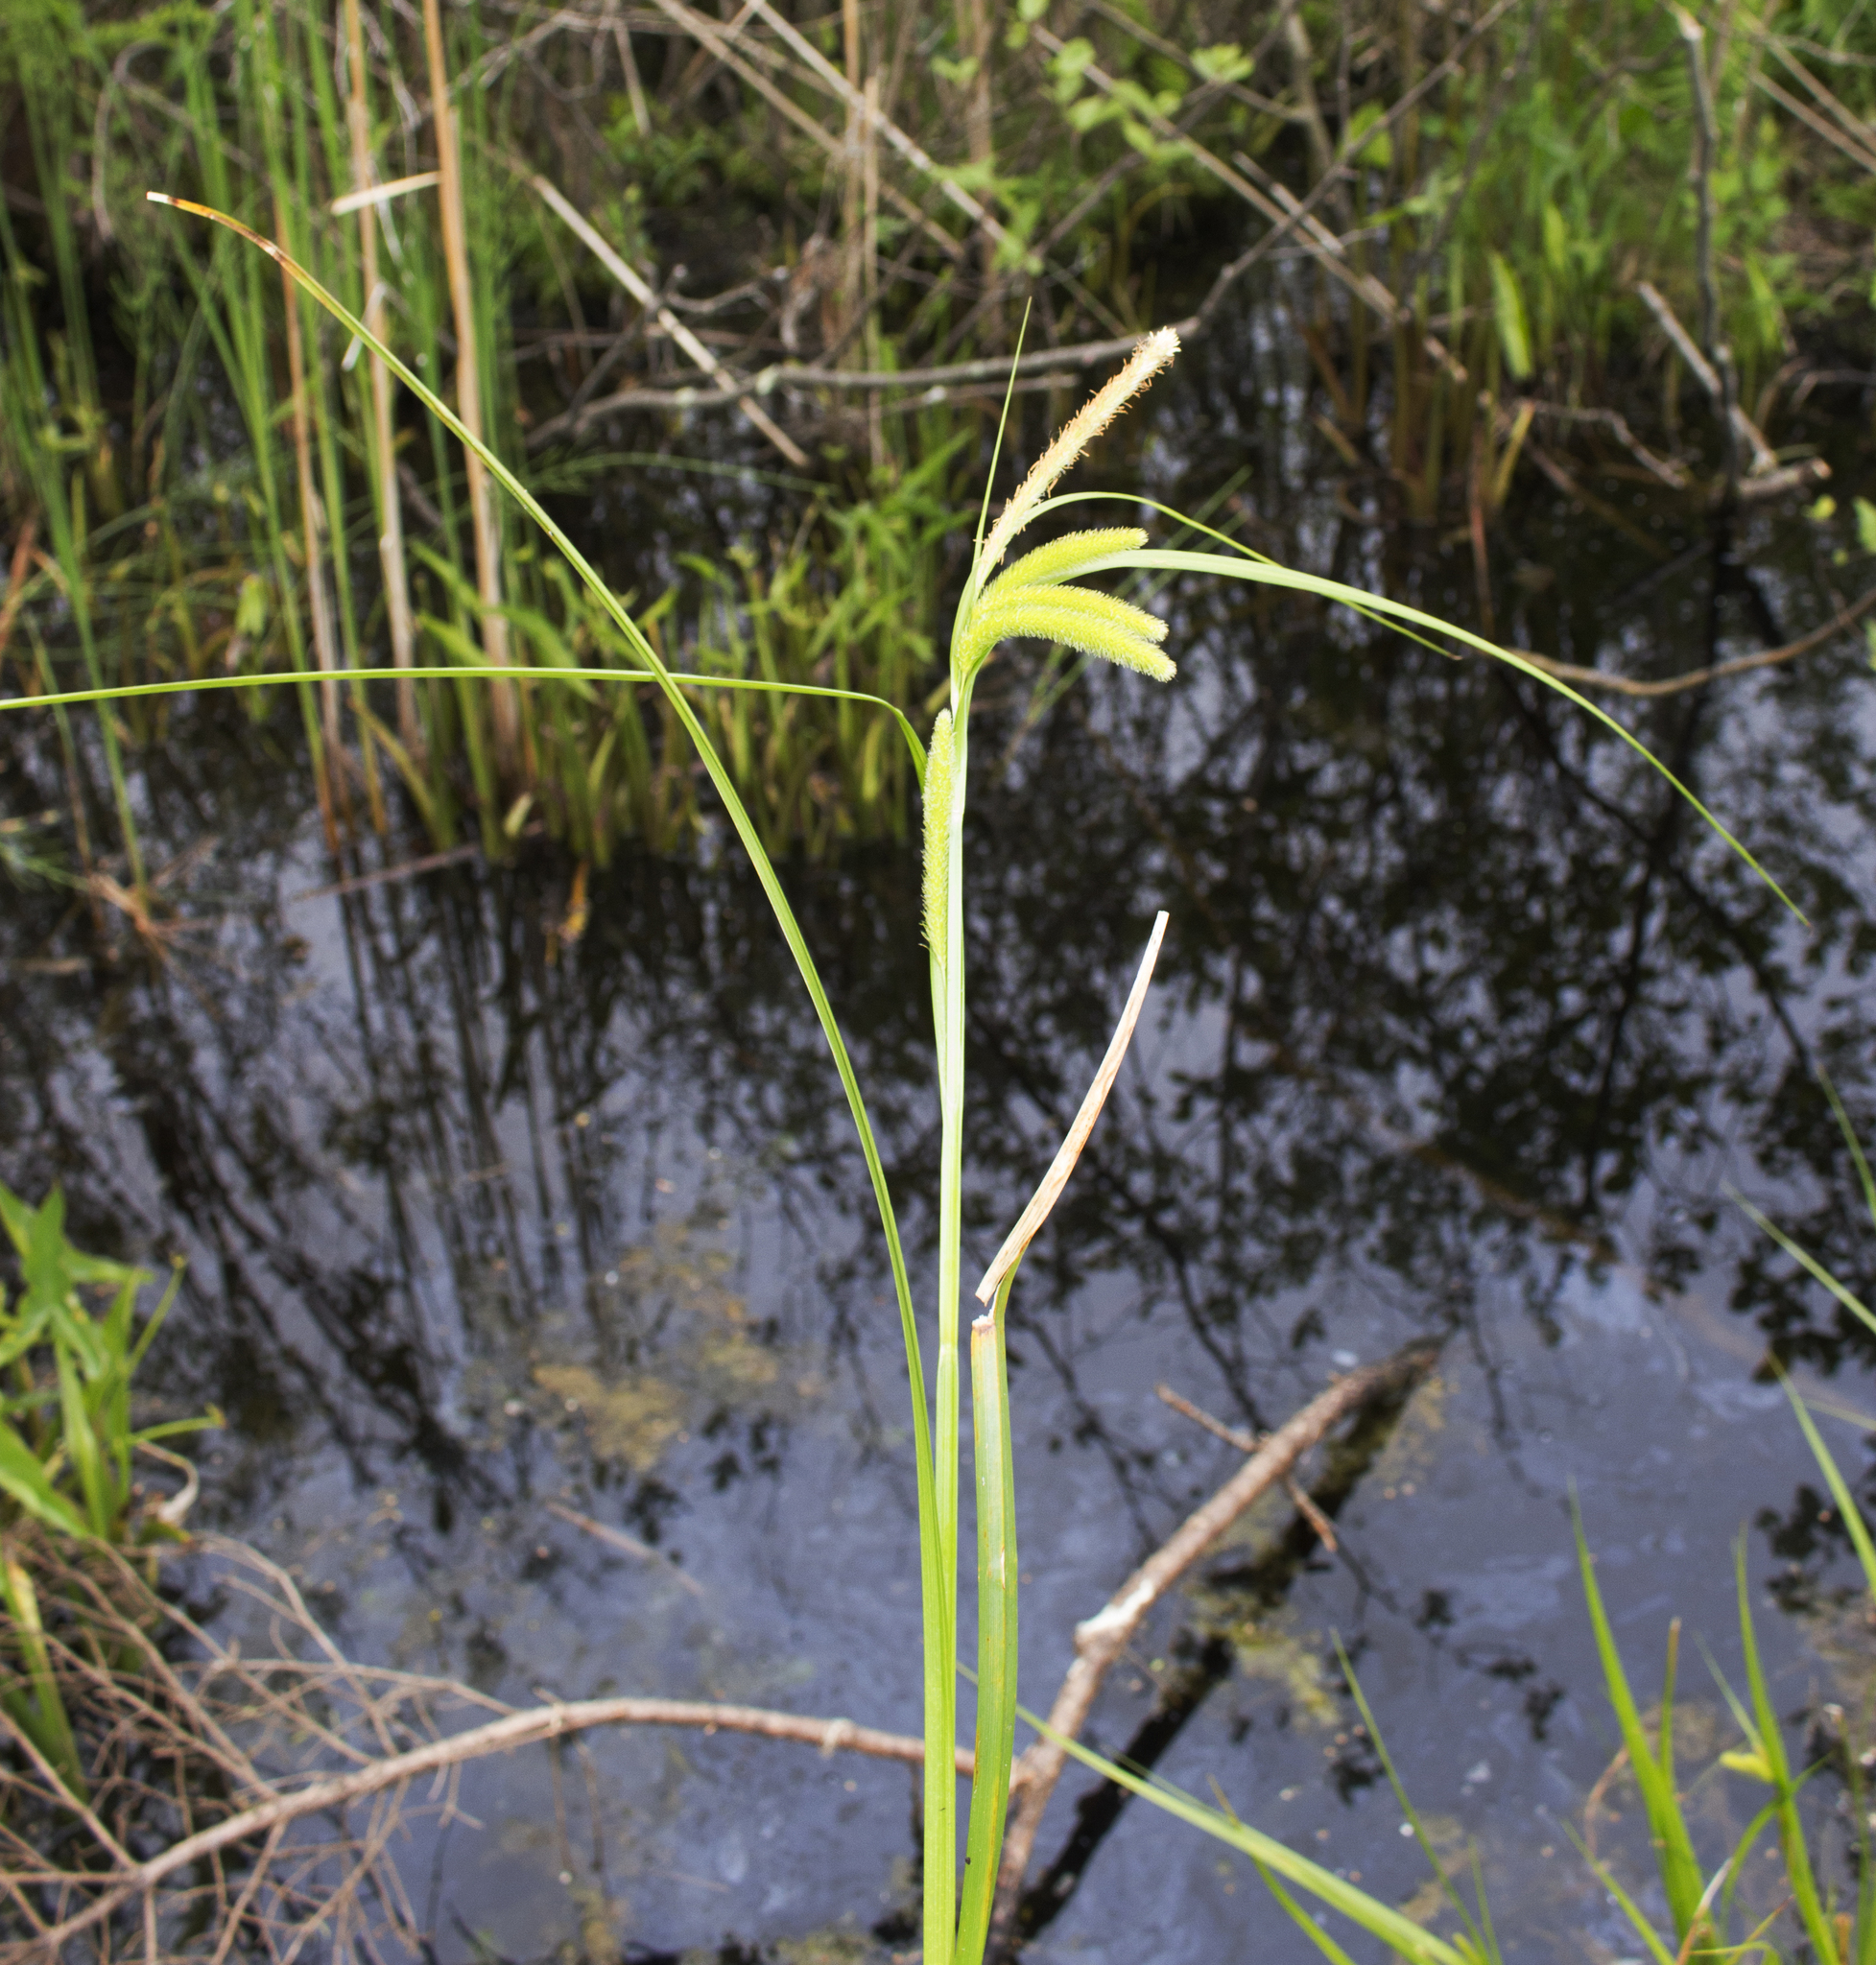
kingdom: Plantae
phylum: Tracheophyta
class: Liliopsida
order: Poales
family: Cyperaceae
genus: Carex
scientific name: Carex comosa
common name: Bristly sedge
